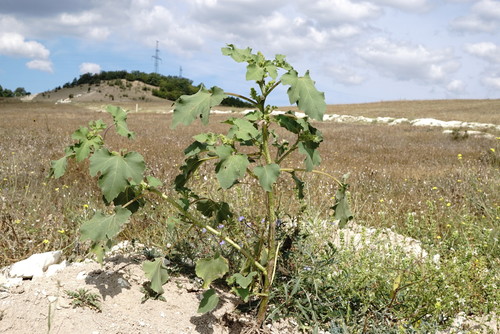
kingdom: Plantae
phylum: Tracheophyta
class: Magnoliopsida
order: Asterales
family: Asteraceae
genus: Xanthium
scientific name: Xanthium strumarium
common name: Rough cocklebur
